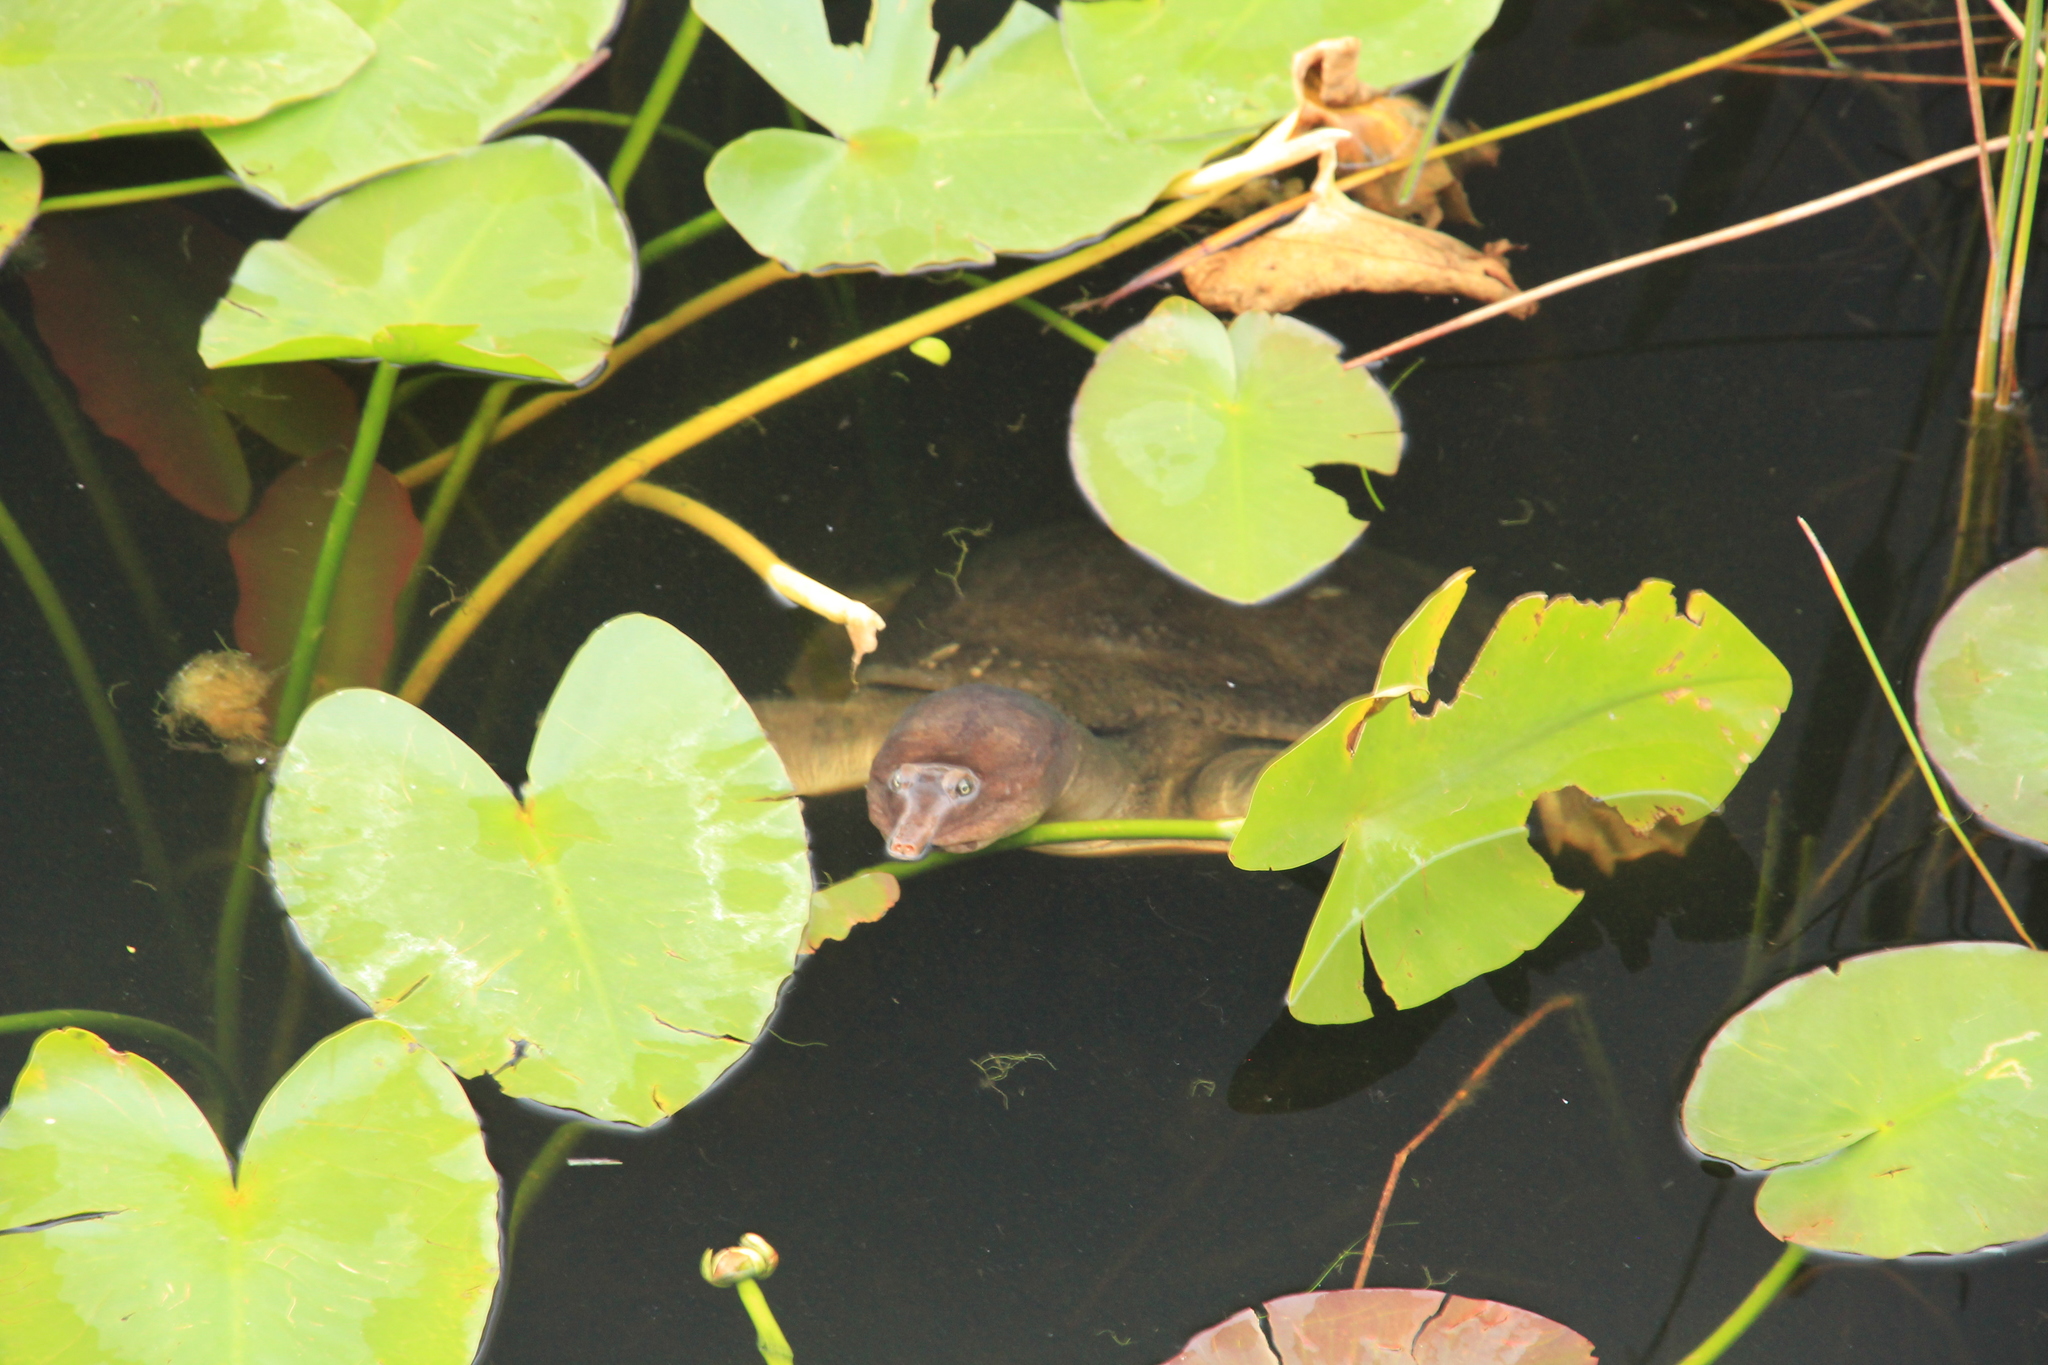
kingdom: Animalia
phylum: Chordata
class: Testudines
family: Trionychidae
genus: Apalone
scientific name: Apalone ferox
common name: Florida softshell turtle
